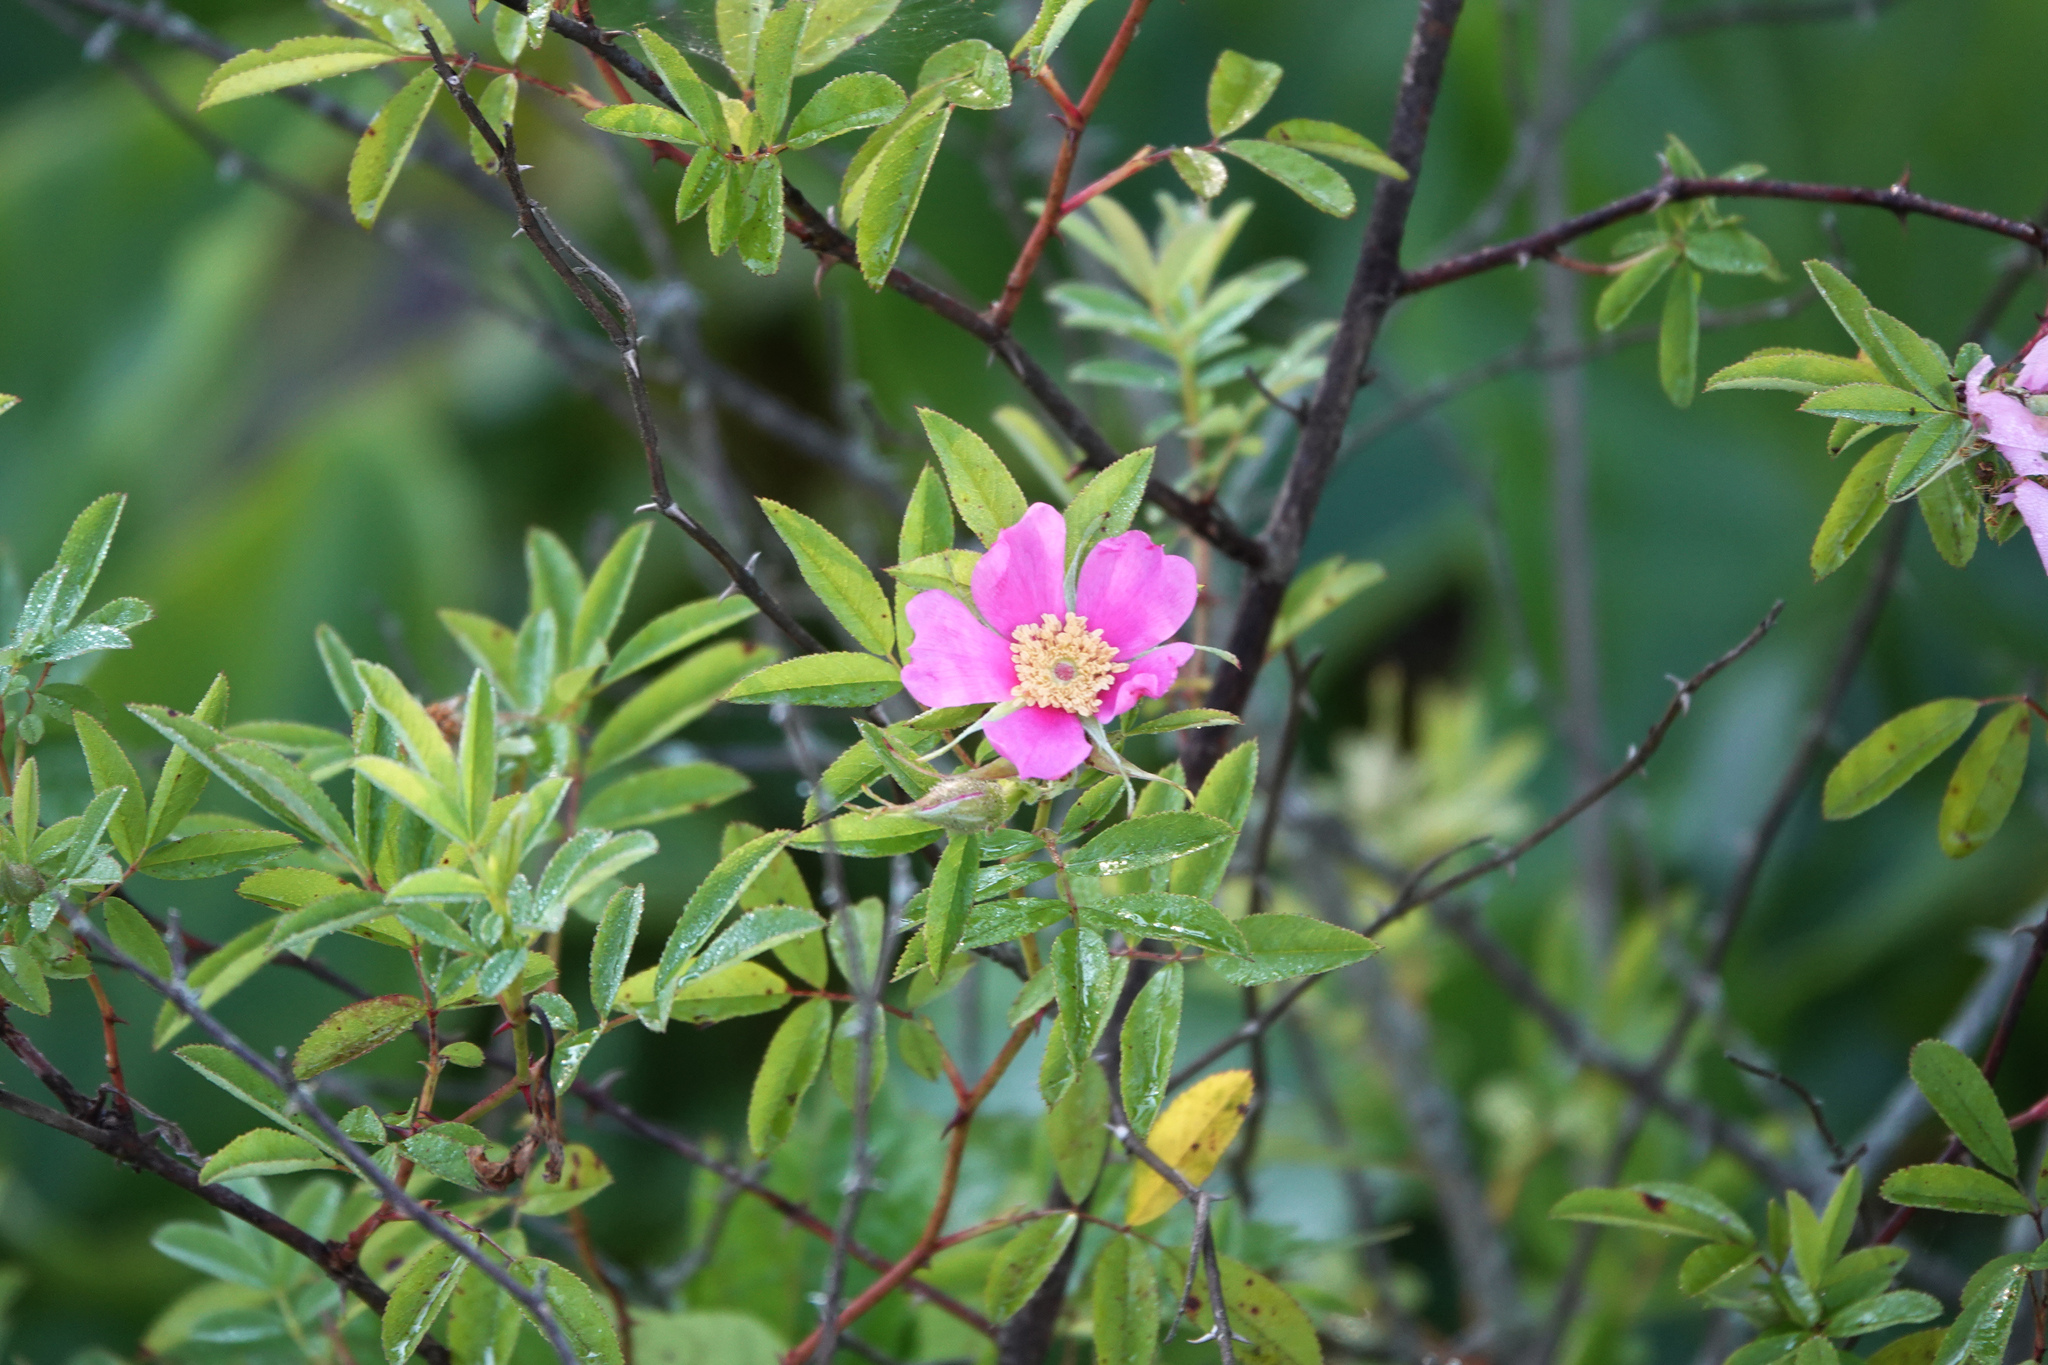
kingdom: Plantae
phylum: Tracheophyta
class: Magnoliopsida
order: Rosales
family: Rosaceae
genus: Rosa
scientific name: Rosa palustris
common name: Swamp rose
